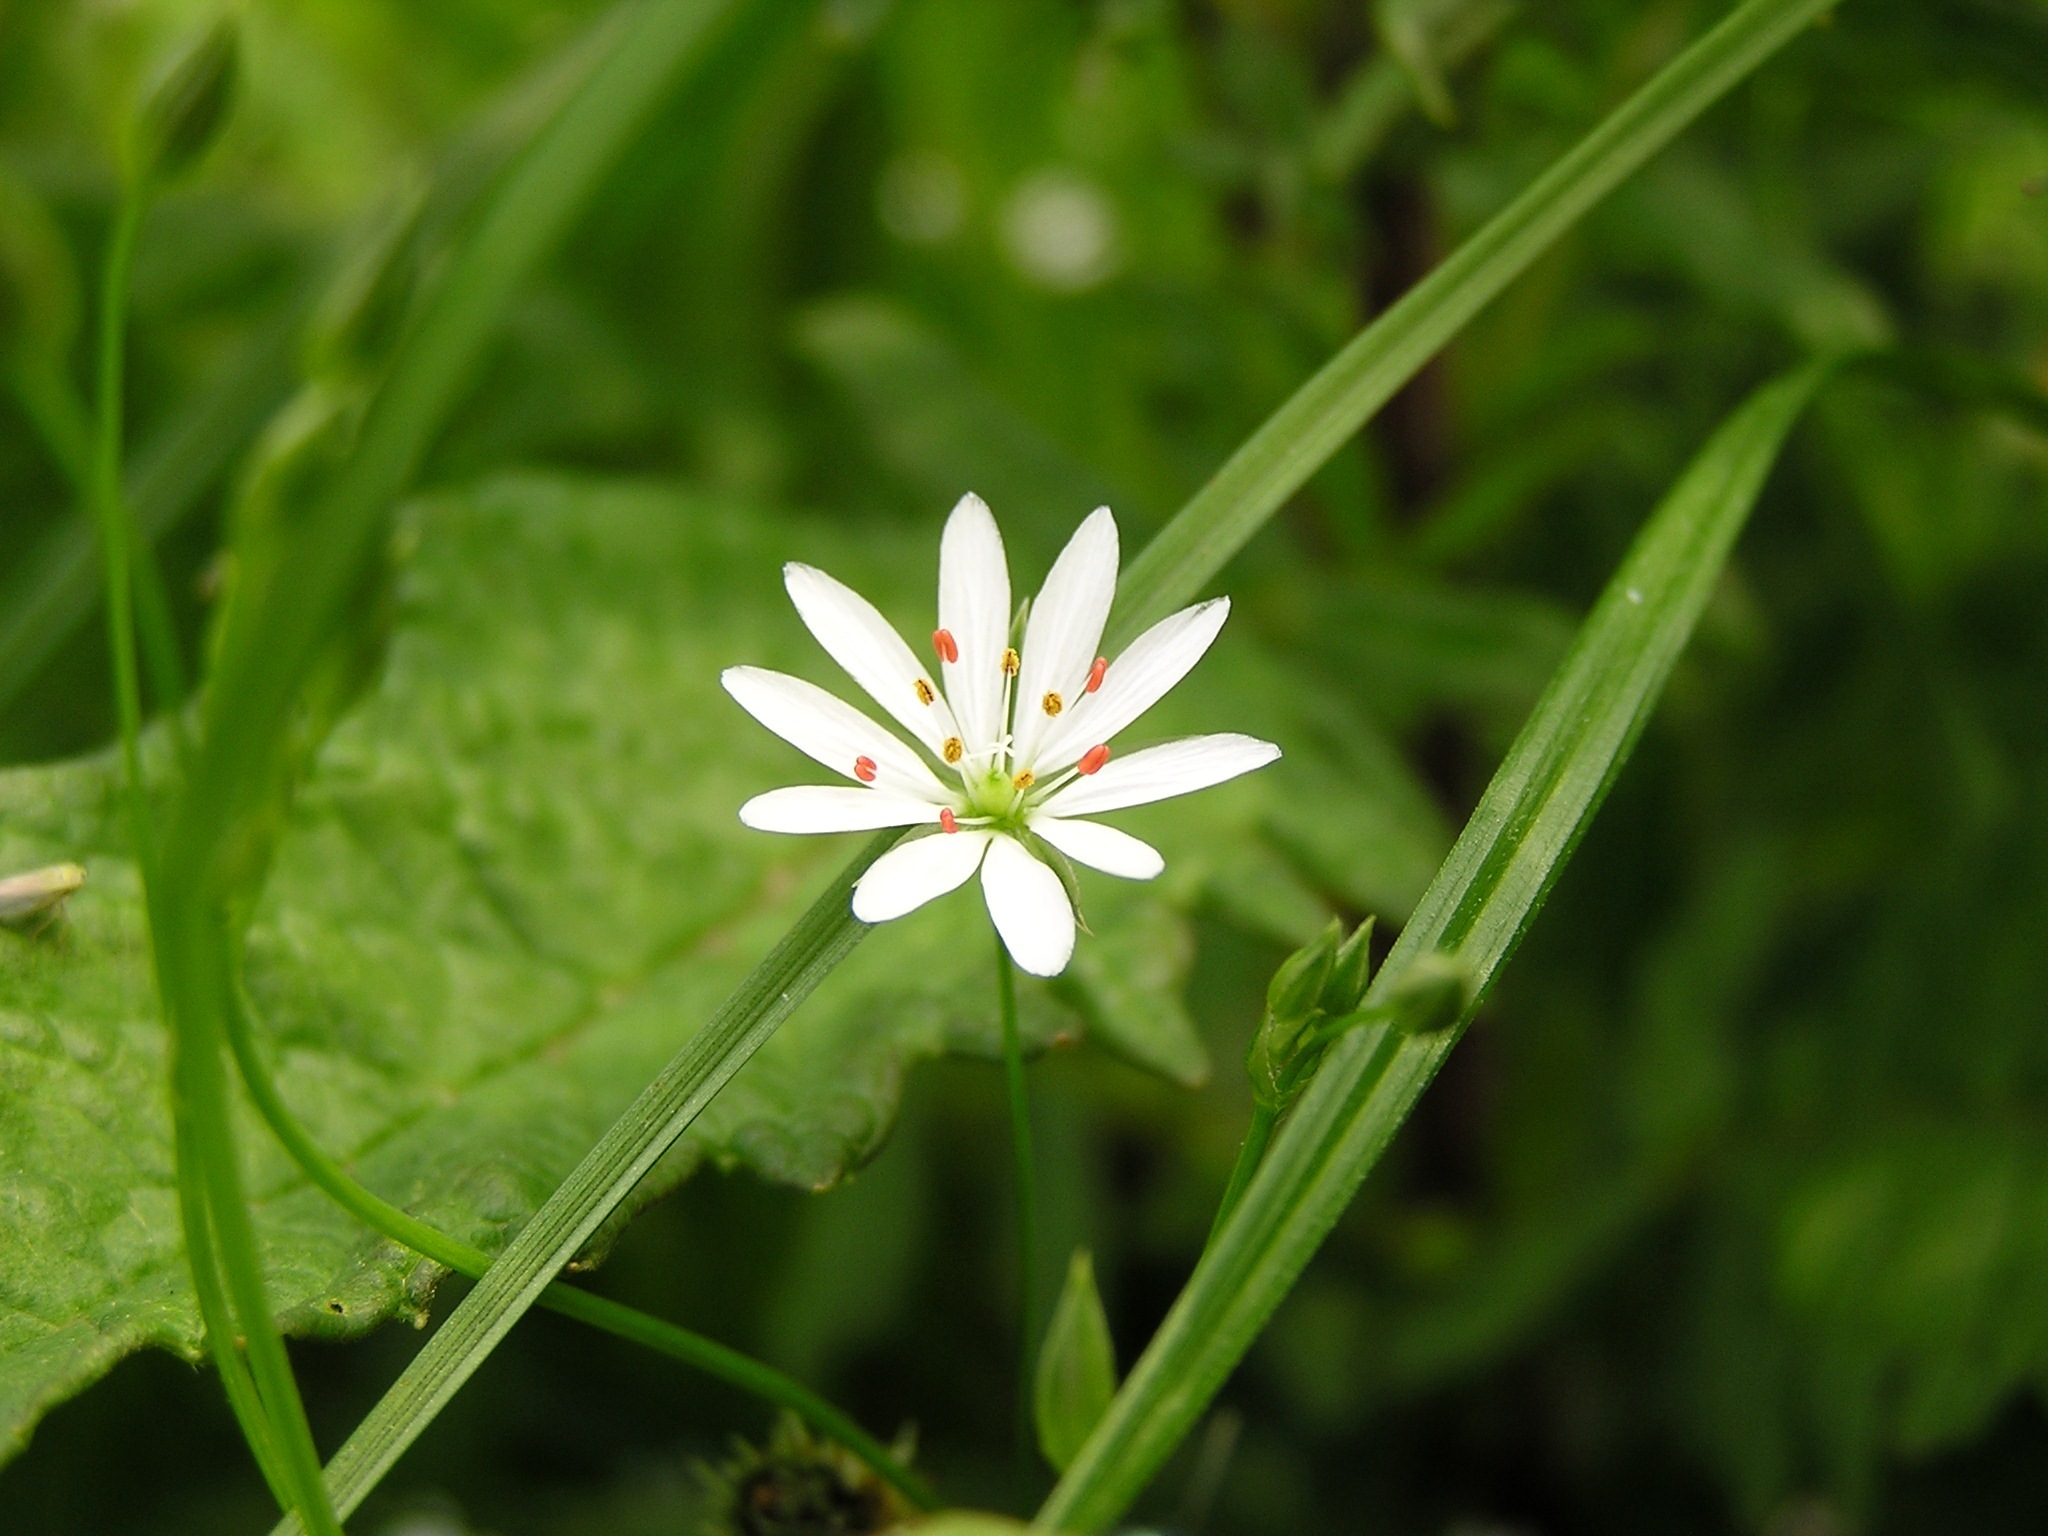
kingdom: Plantae
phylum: Tracheophyta
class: Magnoliopsida
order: Caryophyllales
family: Caryophyllaceae
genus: Stellaria
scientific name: Stellaria graminea
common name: Grass-like starwort
